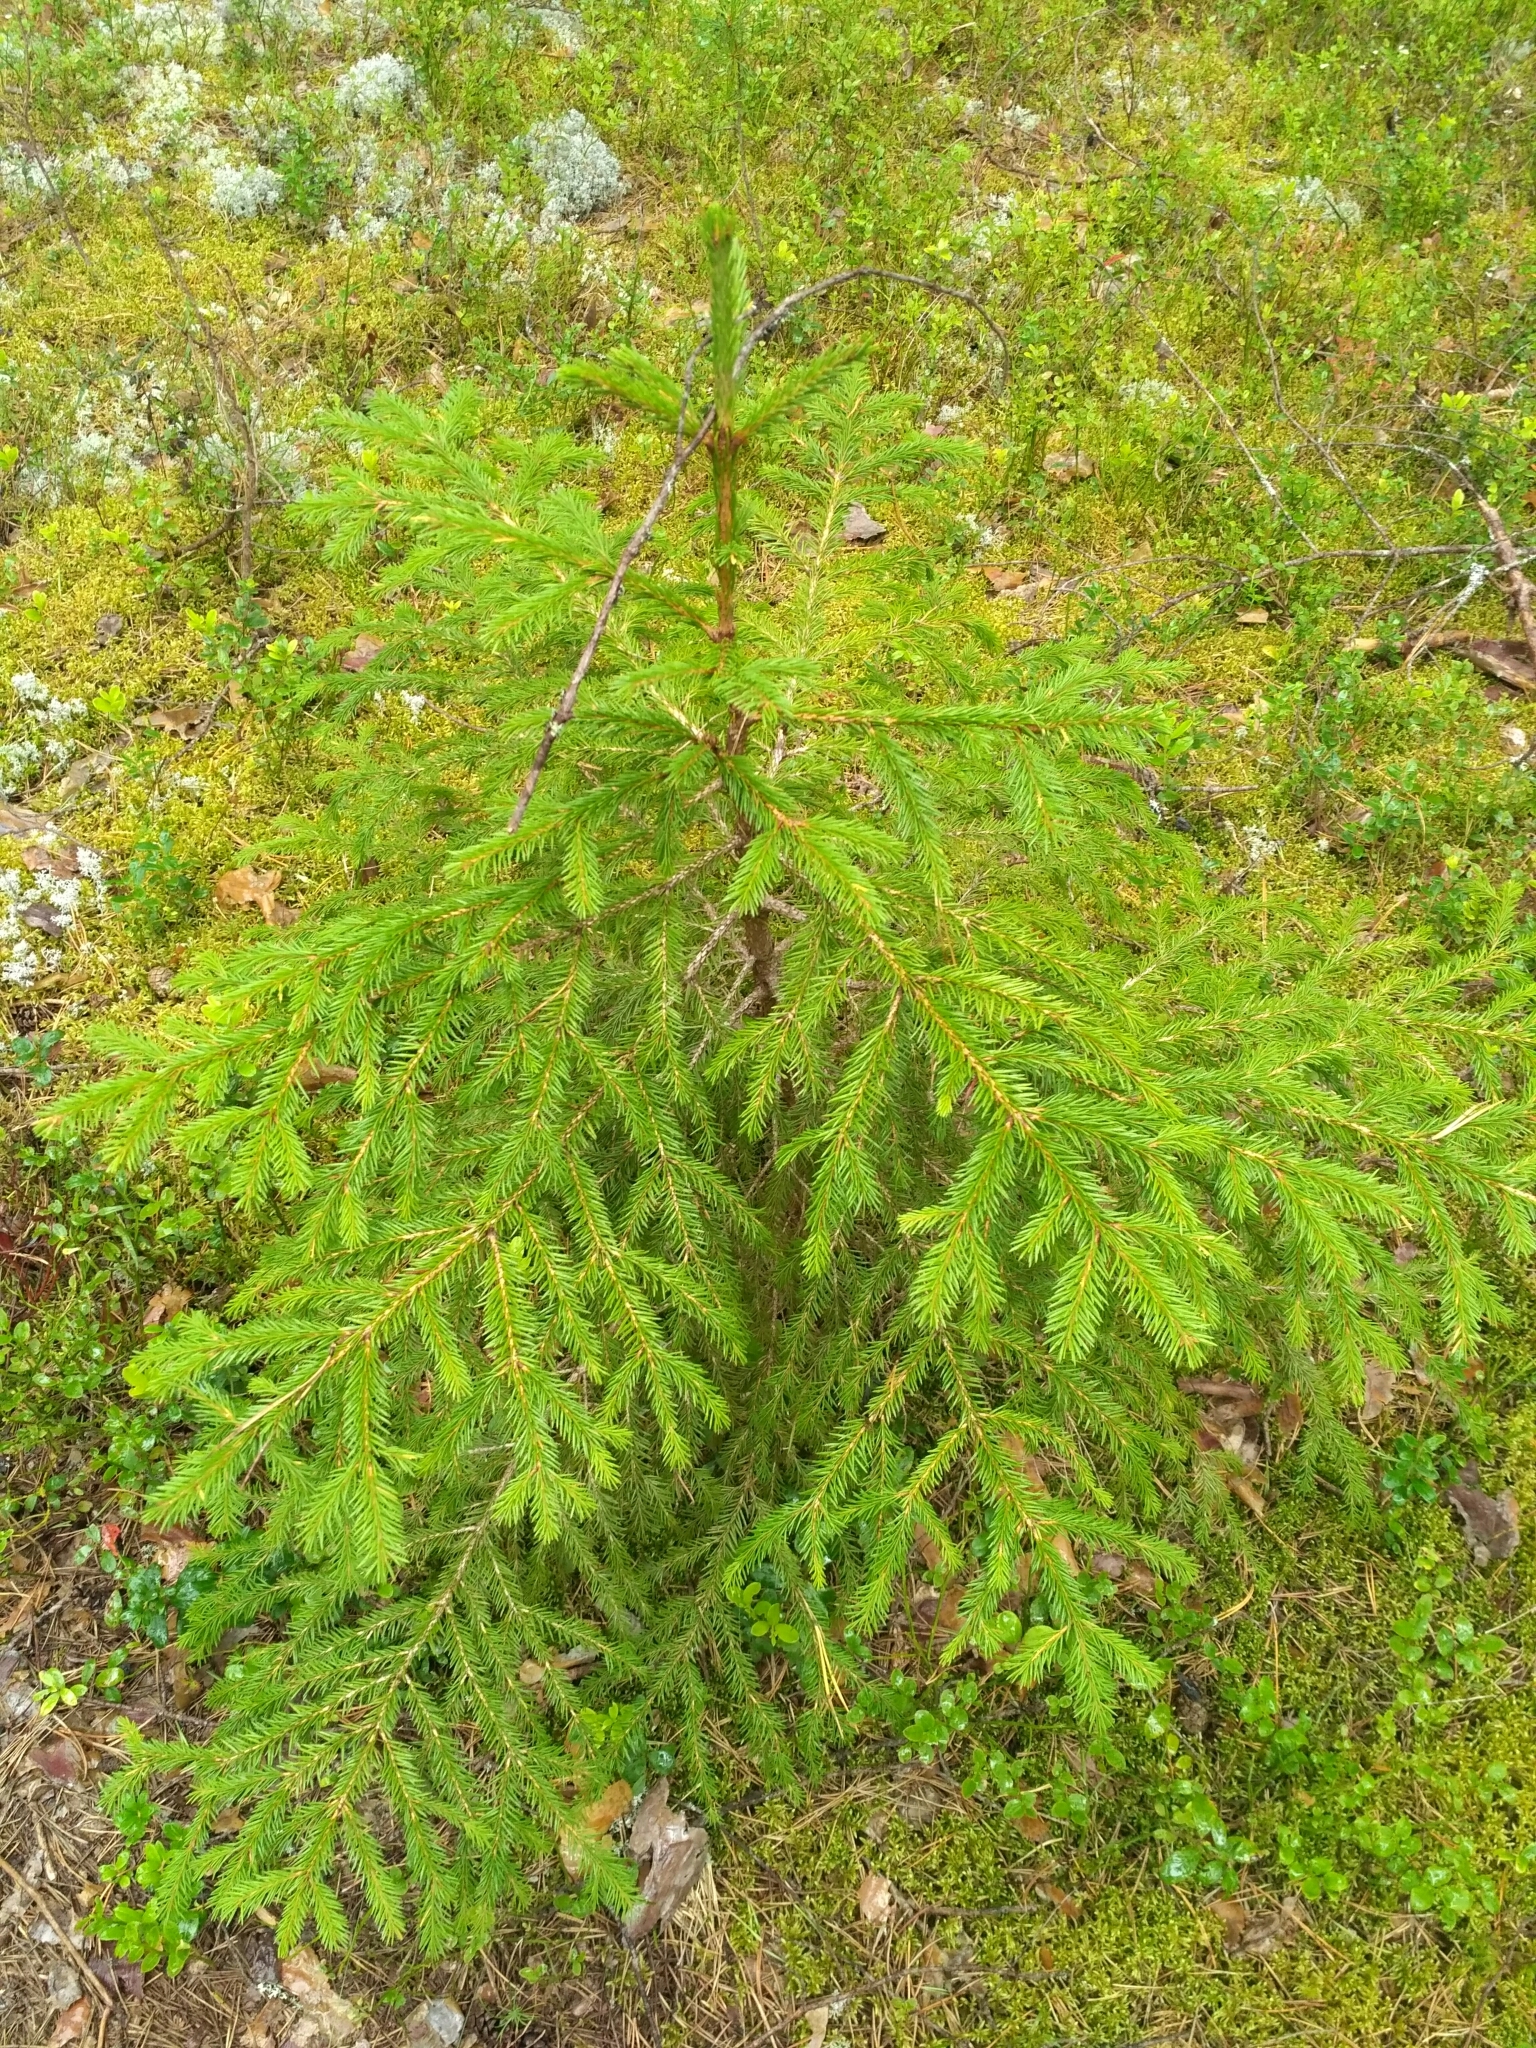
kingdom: Plantae
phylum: Tracheophyta
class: Pinopsida
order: Pinales
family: Pinaceae
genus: Picea
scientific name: Picea abies
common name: Norway spruce
